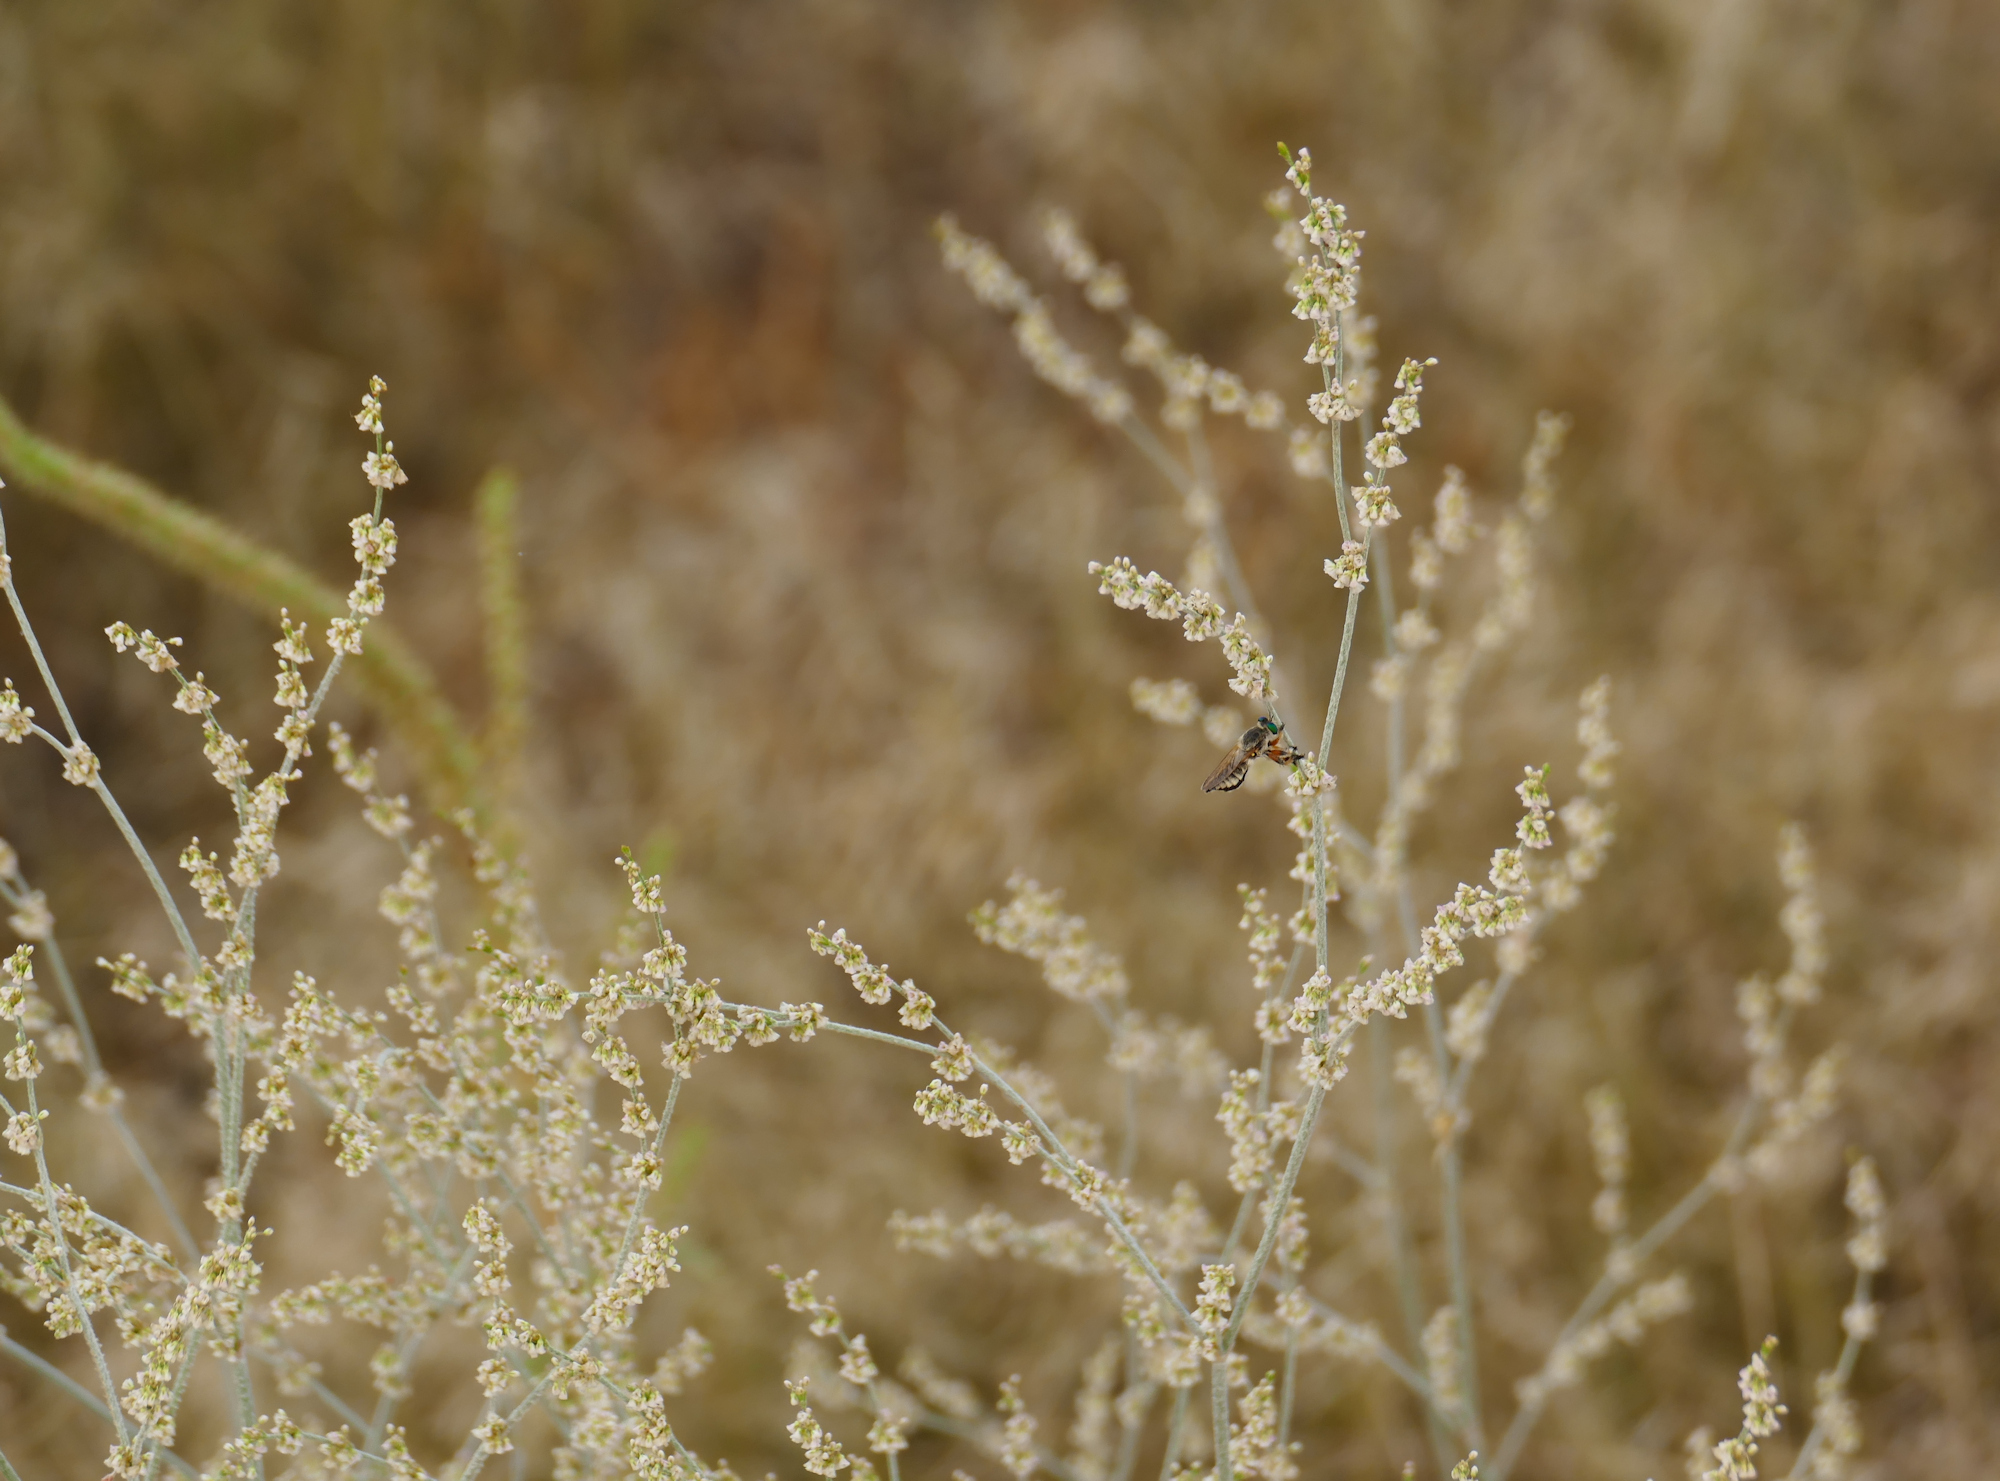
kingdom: Plantae
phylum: Tracheophyta
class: Magnoliopsida
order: Caryophyllales
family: Polygonaceae
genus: Eriogonum
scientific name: Eriogonum polycladon
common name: Sorrel wild buckwheat
